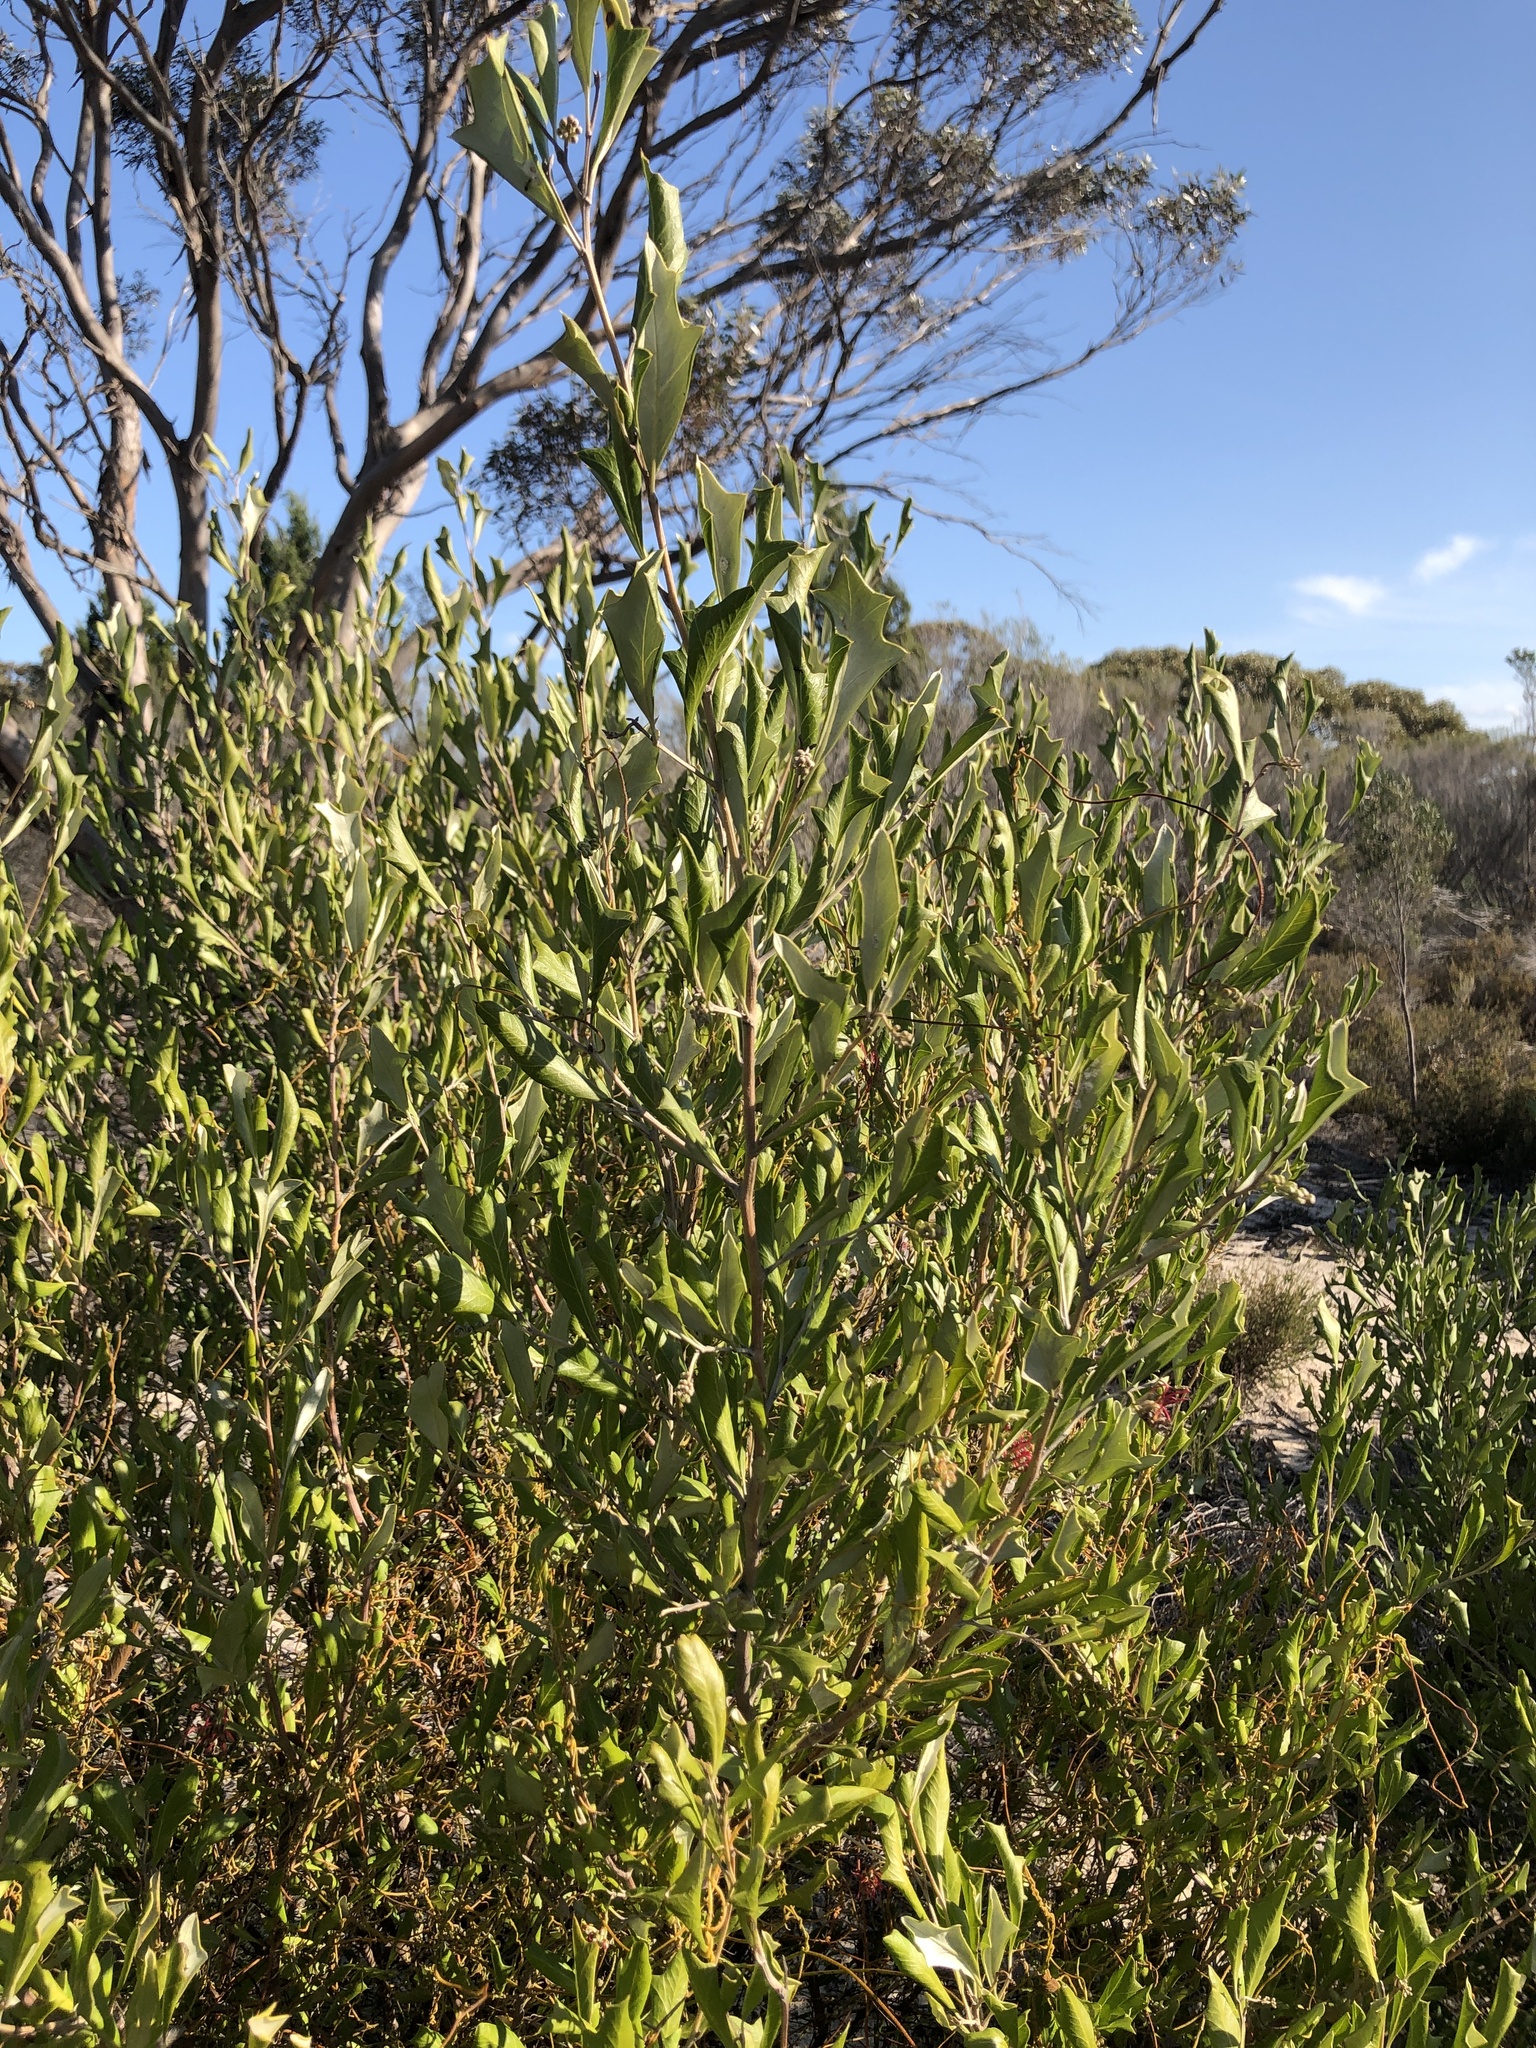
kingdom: Plantae
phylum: Tracheophyta
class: Magnoliopsida
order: Proteales
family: Proteaceae
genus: Grevillea
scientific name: Grevillea ilicifolia
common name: Holly grevillea
